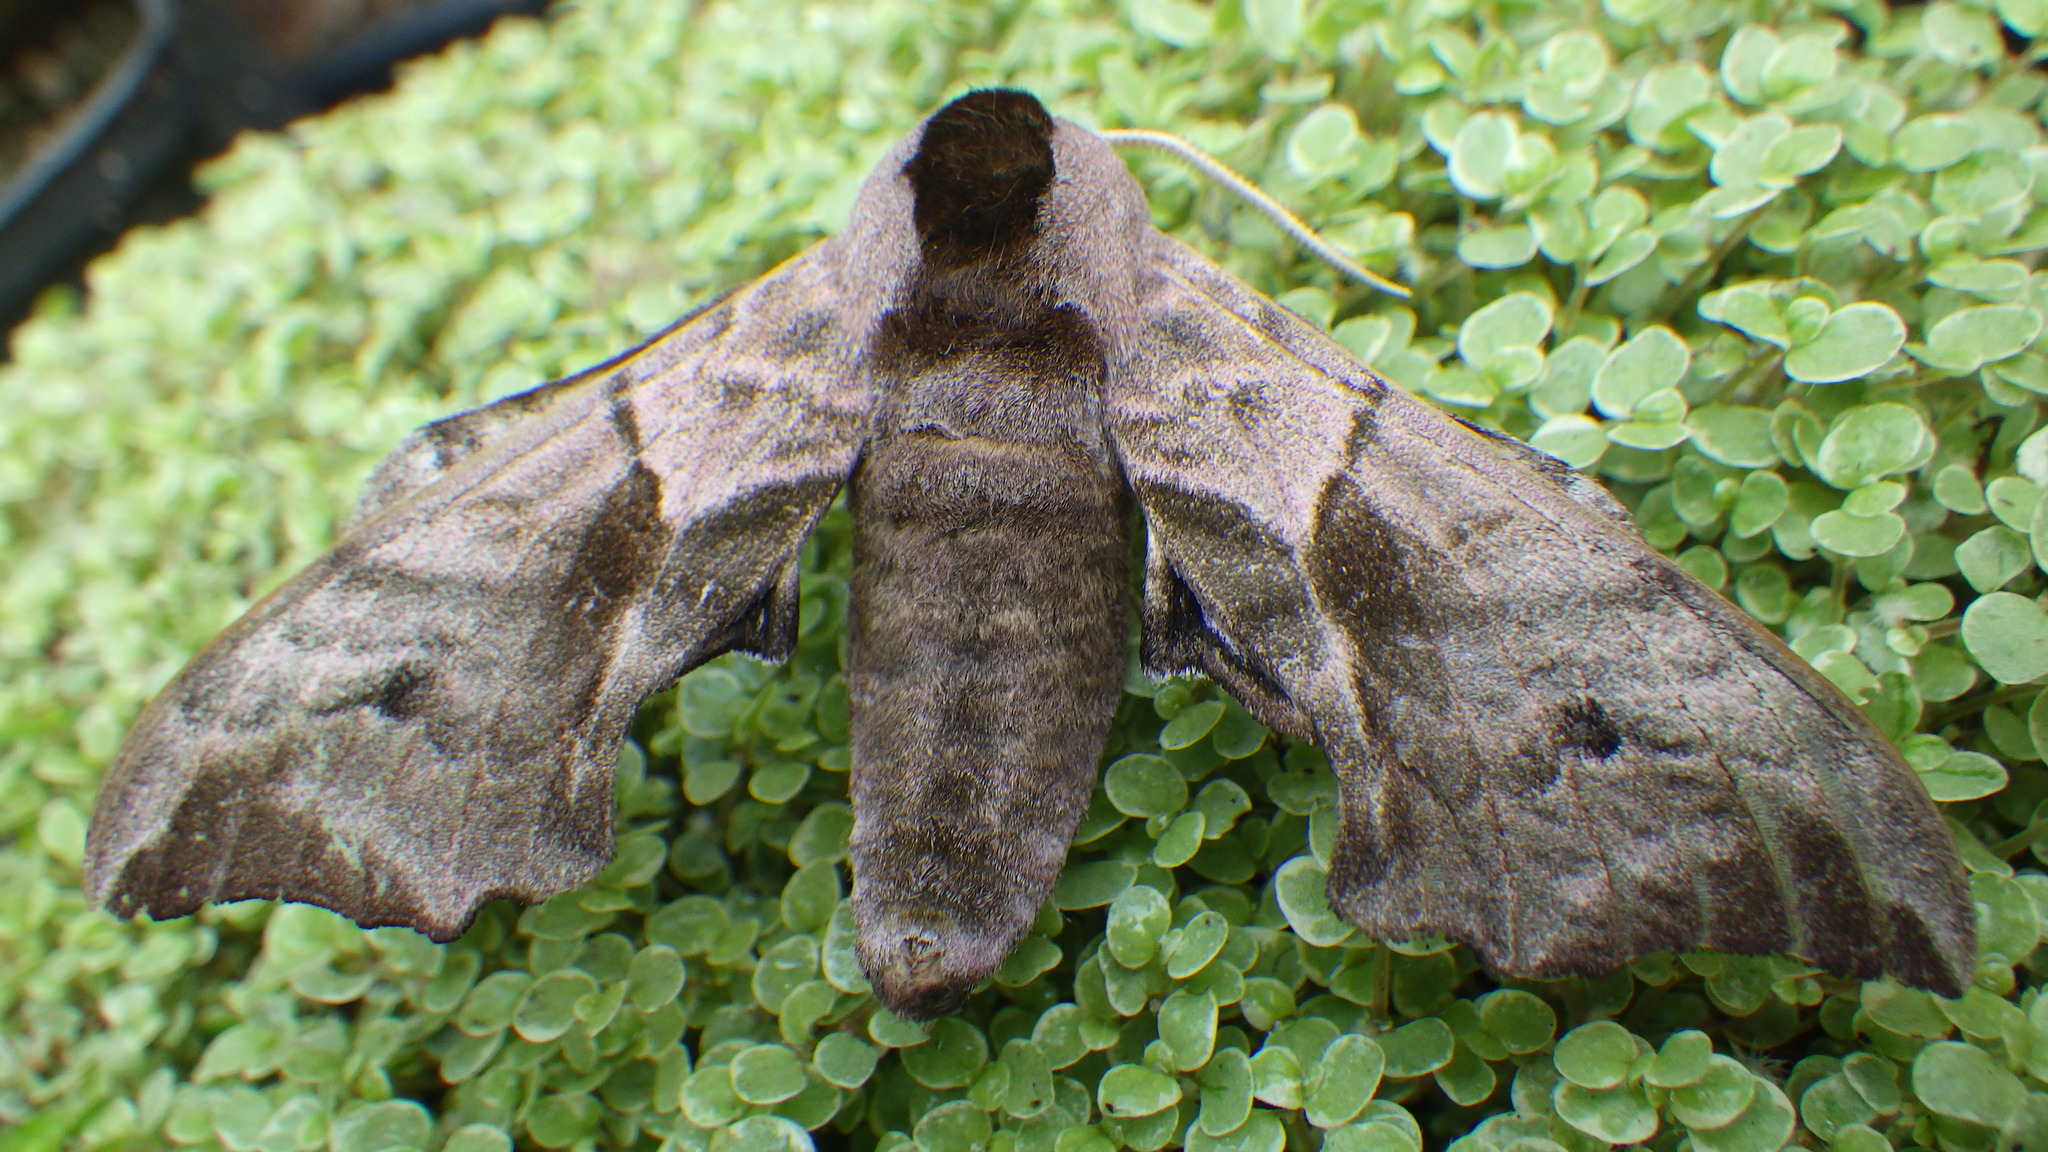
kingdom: Animalia
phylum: Arthropoda
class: Insecta
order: Lepidoptera
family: Sphingidae
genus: Smerinthus
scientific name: Smerinthus ocellata
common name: Eyed hawk-moth
